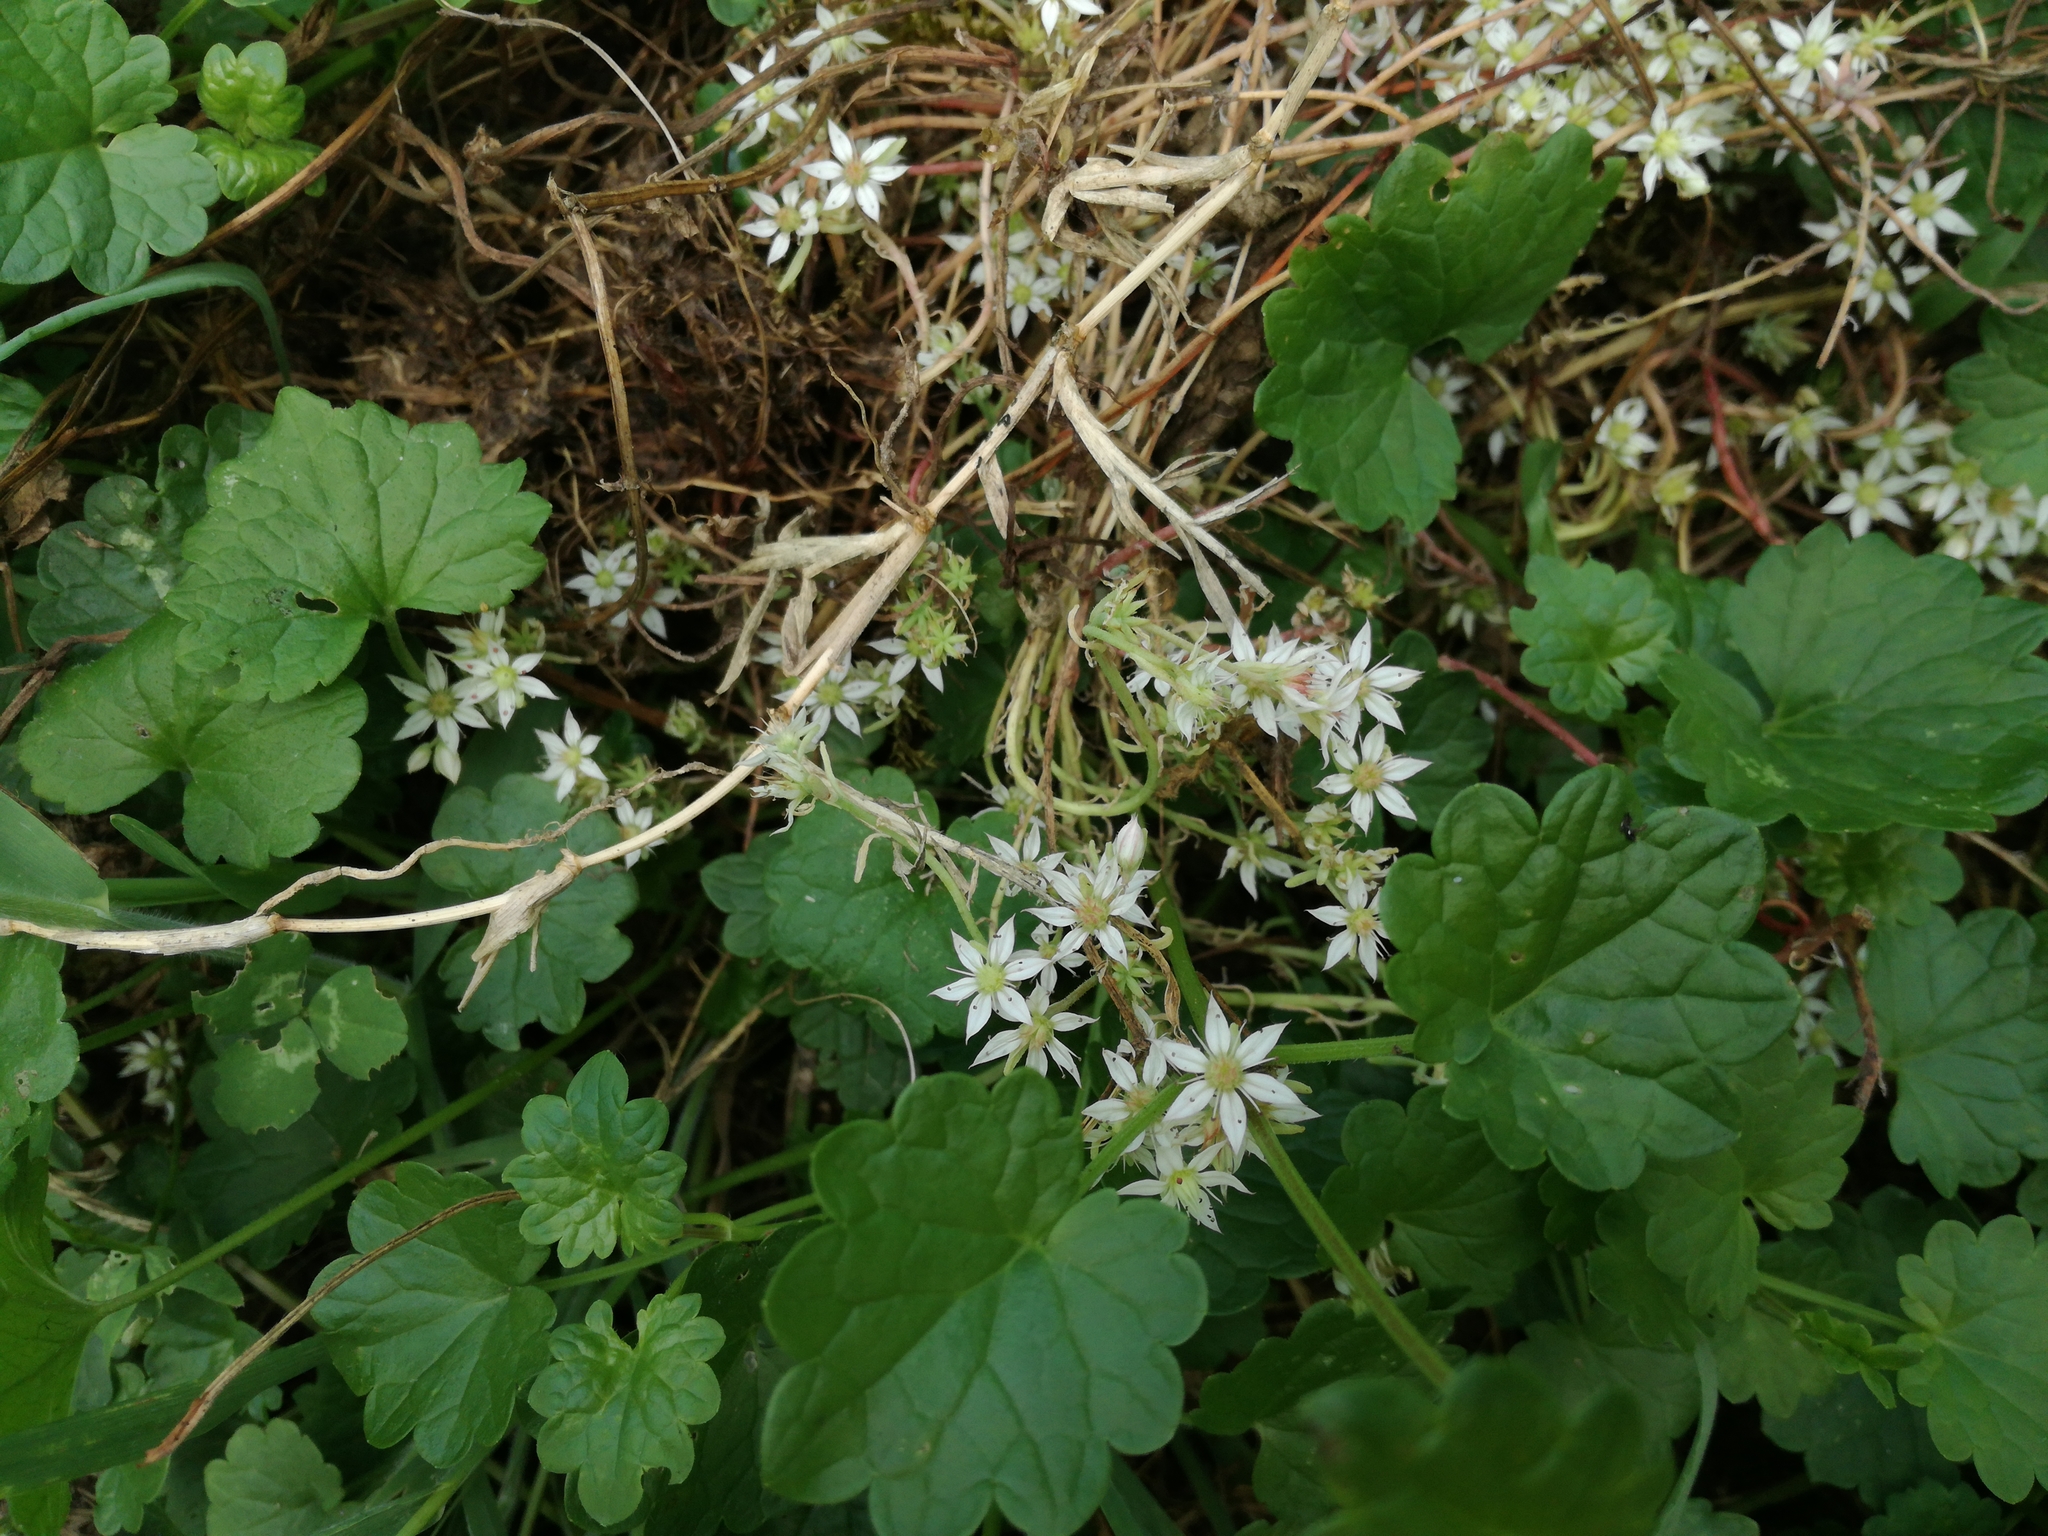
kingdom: Plantae
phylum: Tracheophyta
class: Magnoliopsida
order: Saxifragales
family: Crassulaceae
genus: Sedum
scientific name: Sedum hispanicum
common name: Spanish stonecrop
